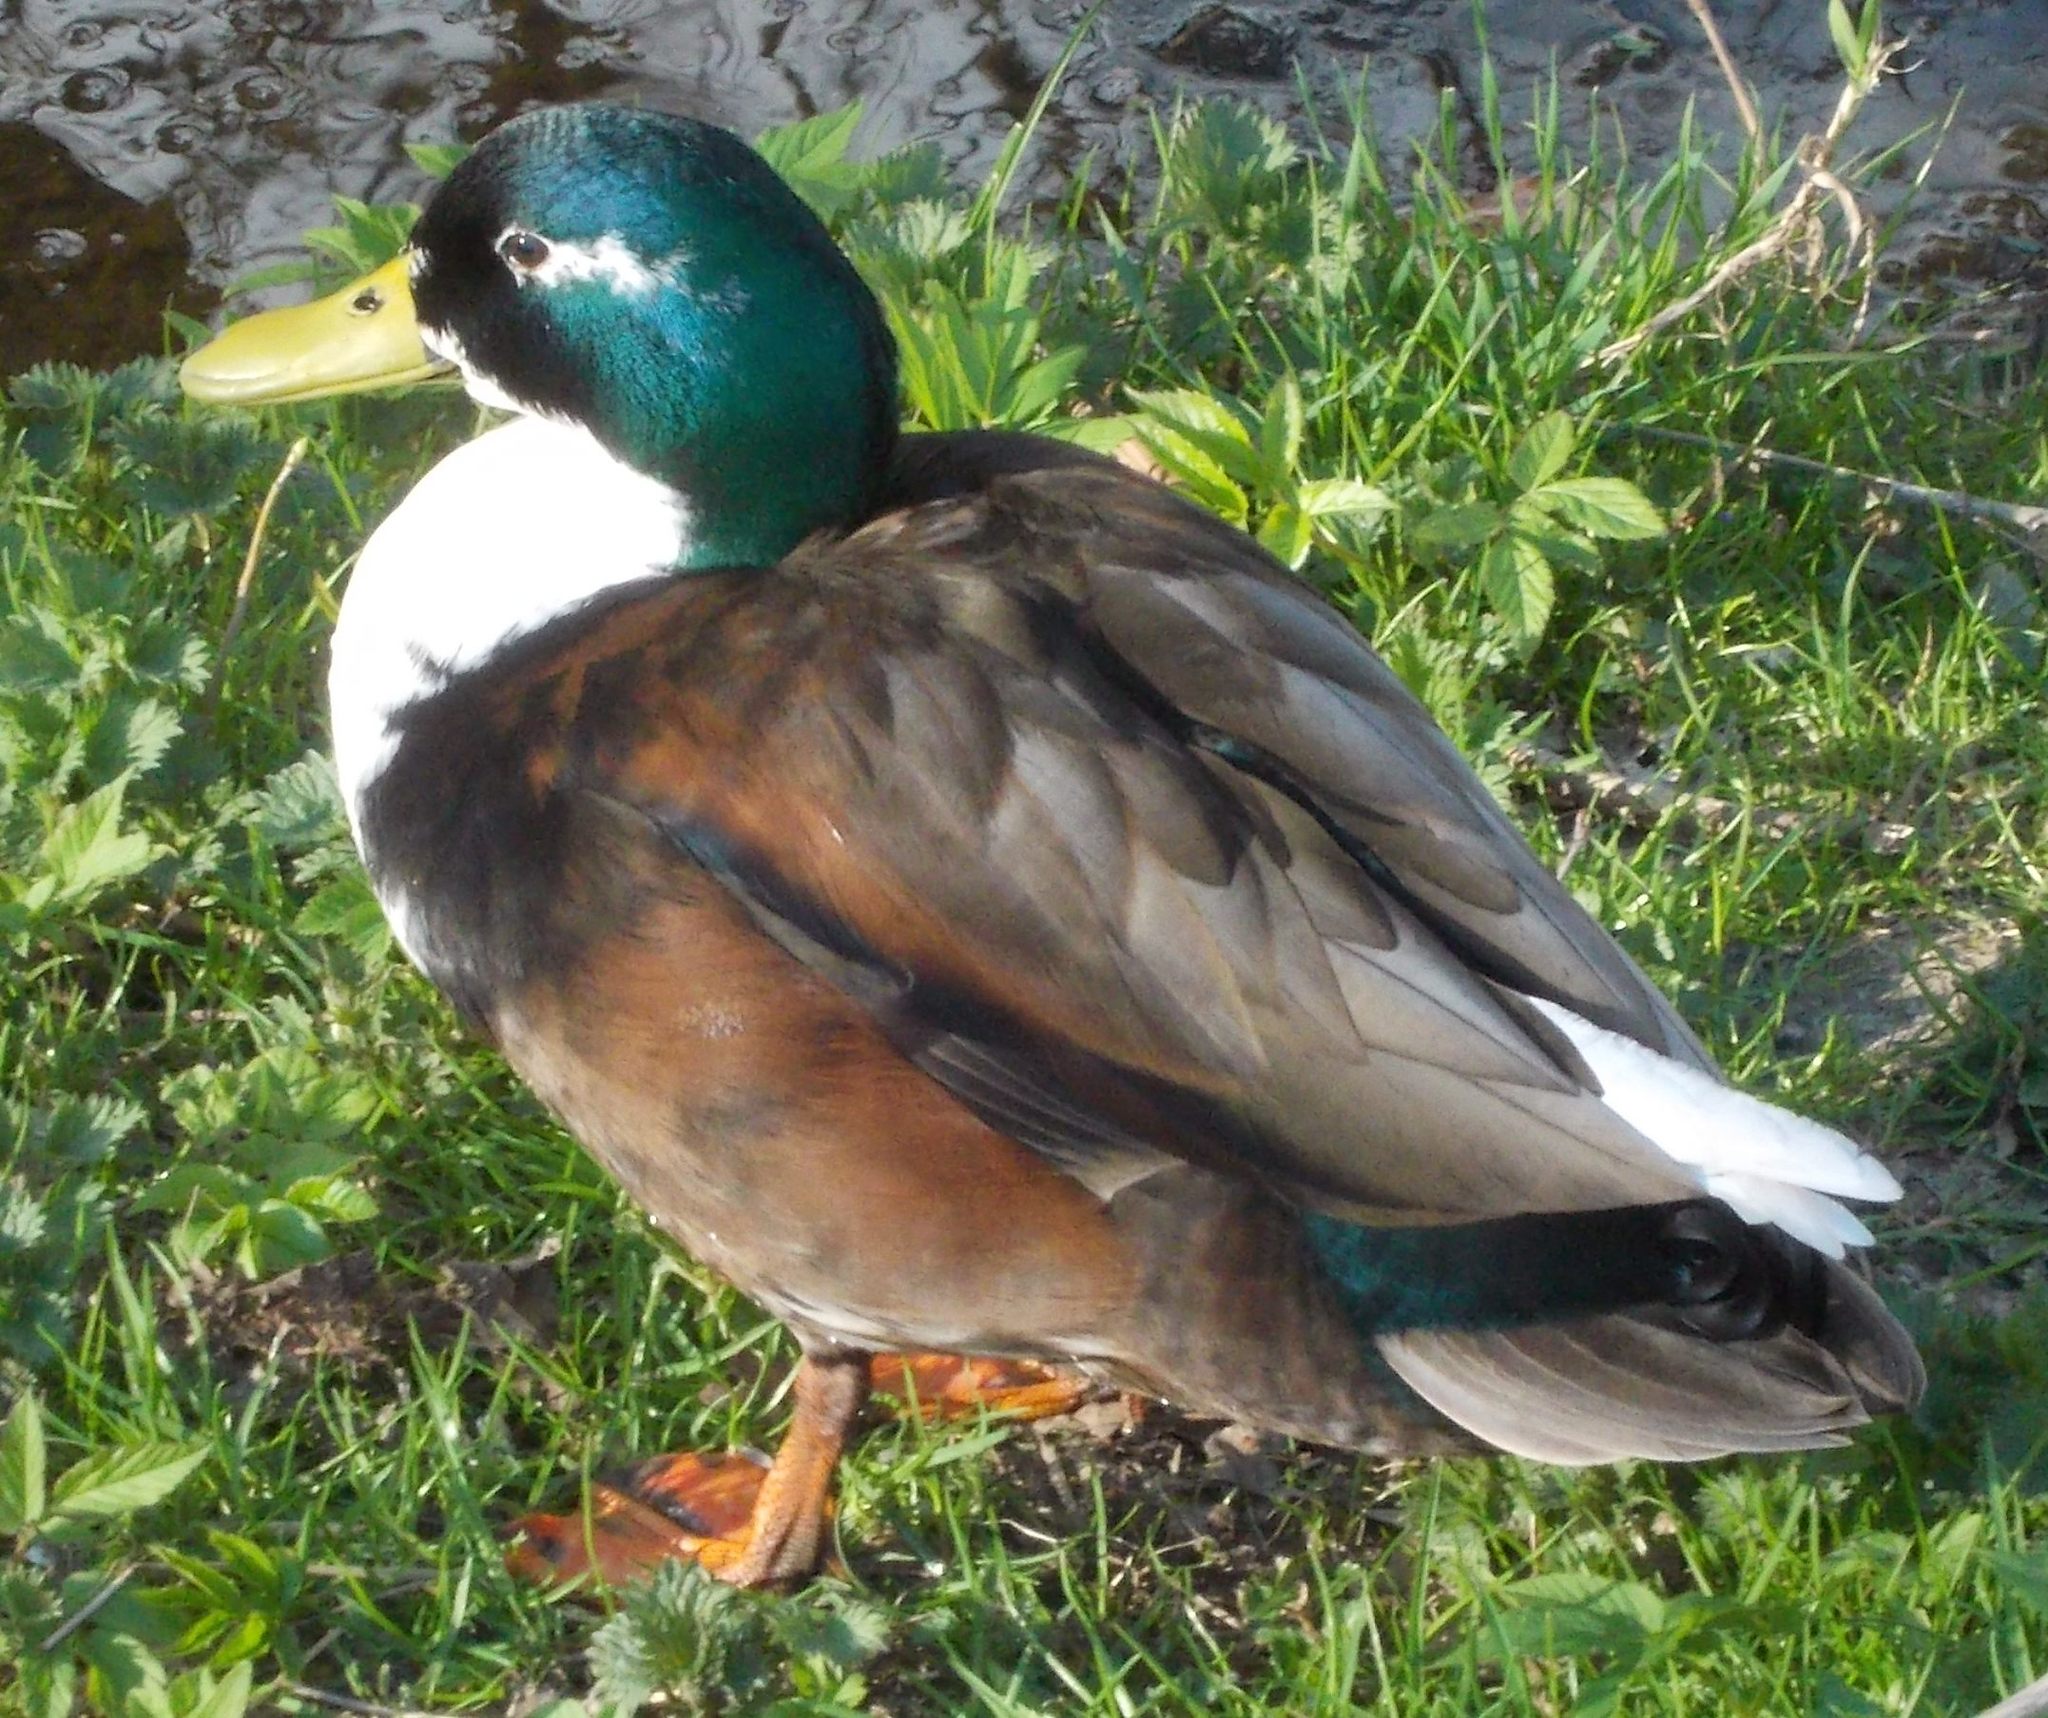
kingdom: Animalia
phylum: Chordata
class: Aves
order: Anseriformes
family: Anatidae
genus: Anas
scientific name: Anas platyrhynchos
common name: Mallard
